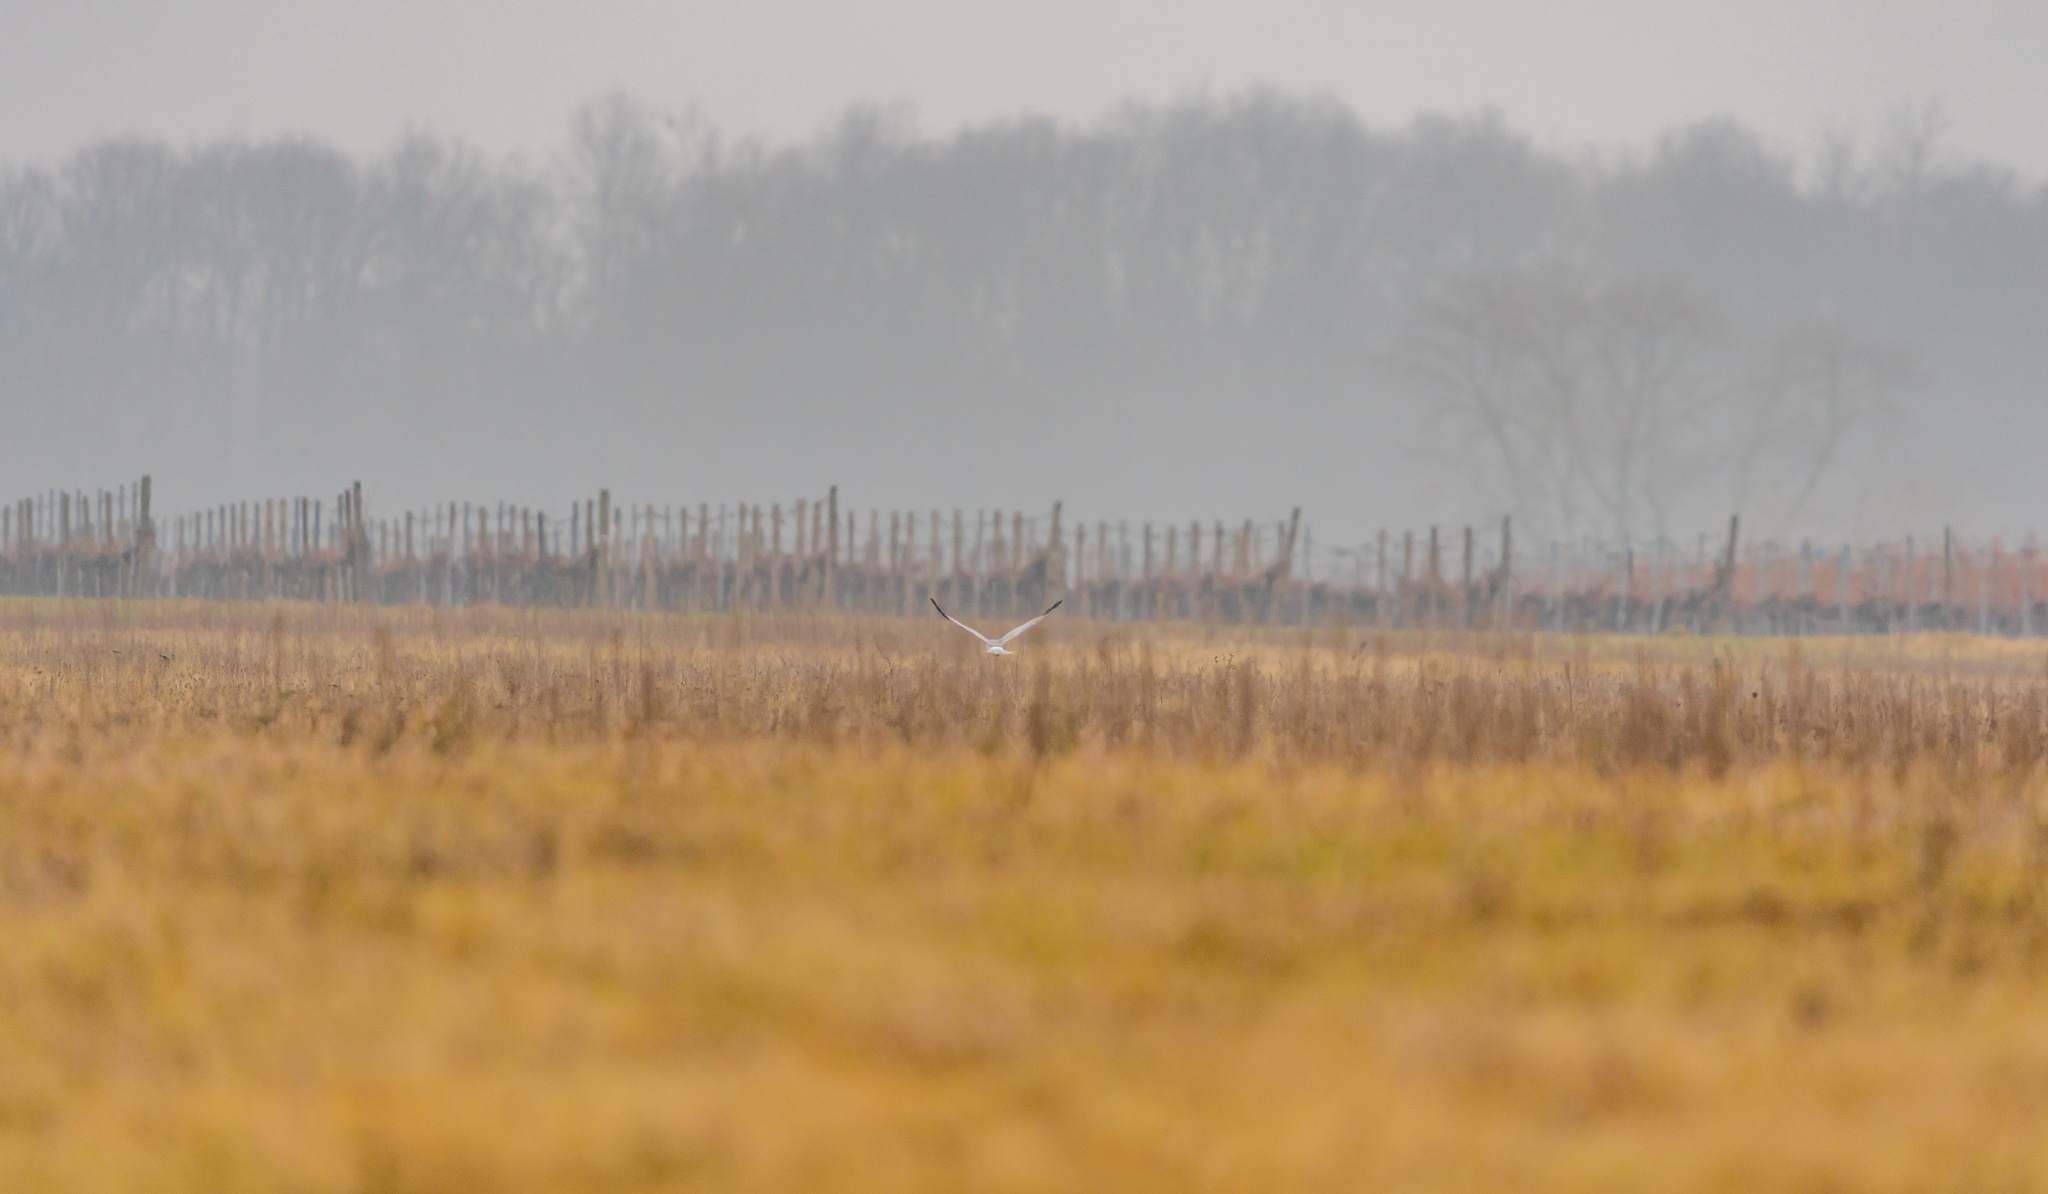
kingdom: Animalia
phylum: Chordata
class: Aves
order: Accipitriformes
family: Accipitridae
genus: Circus
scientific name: Circus cyaneus
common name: Hen harrier
